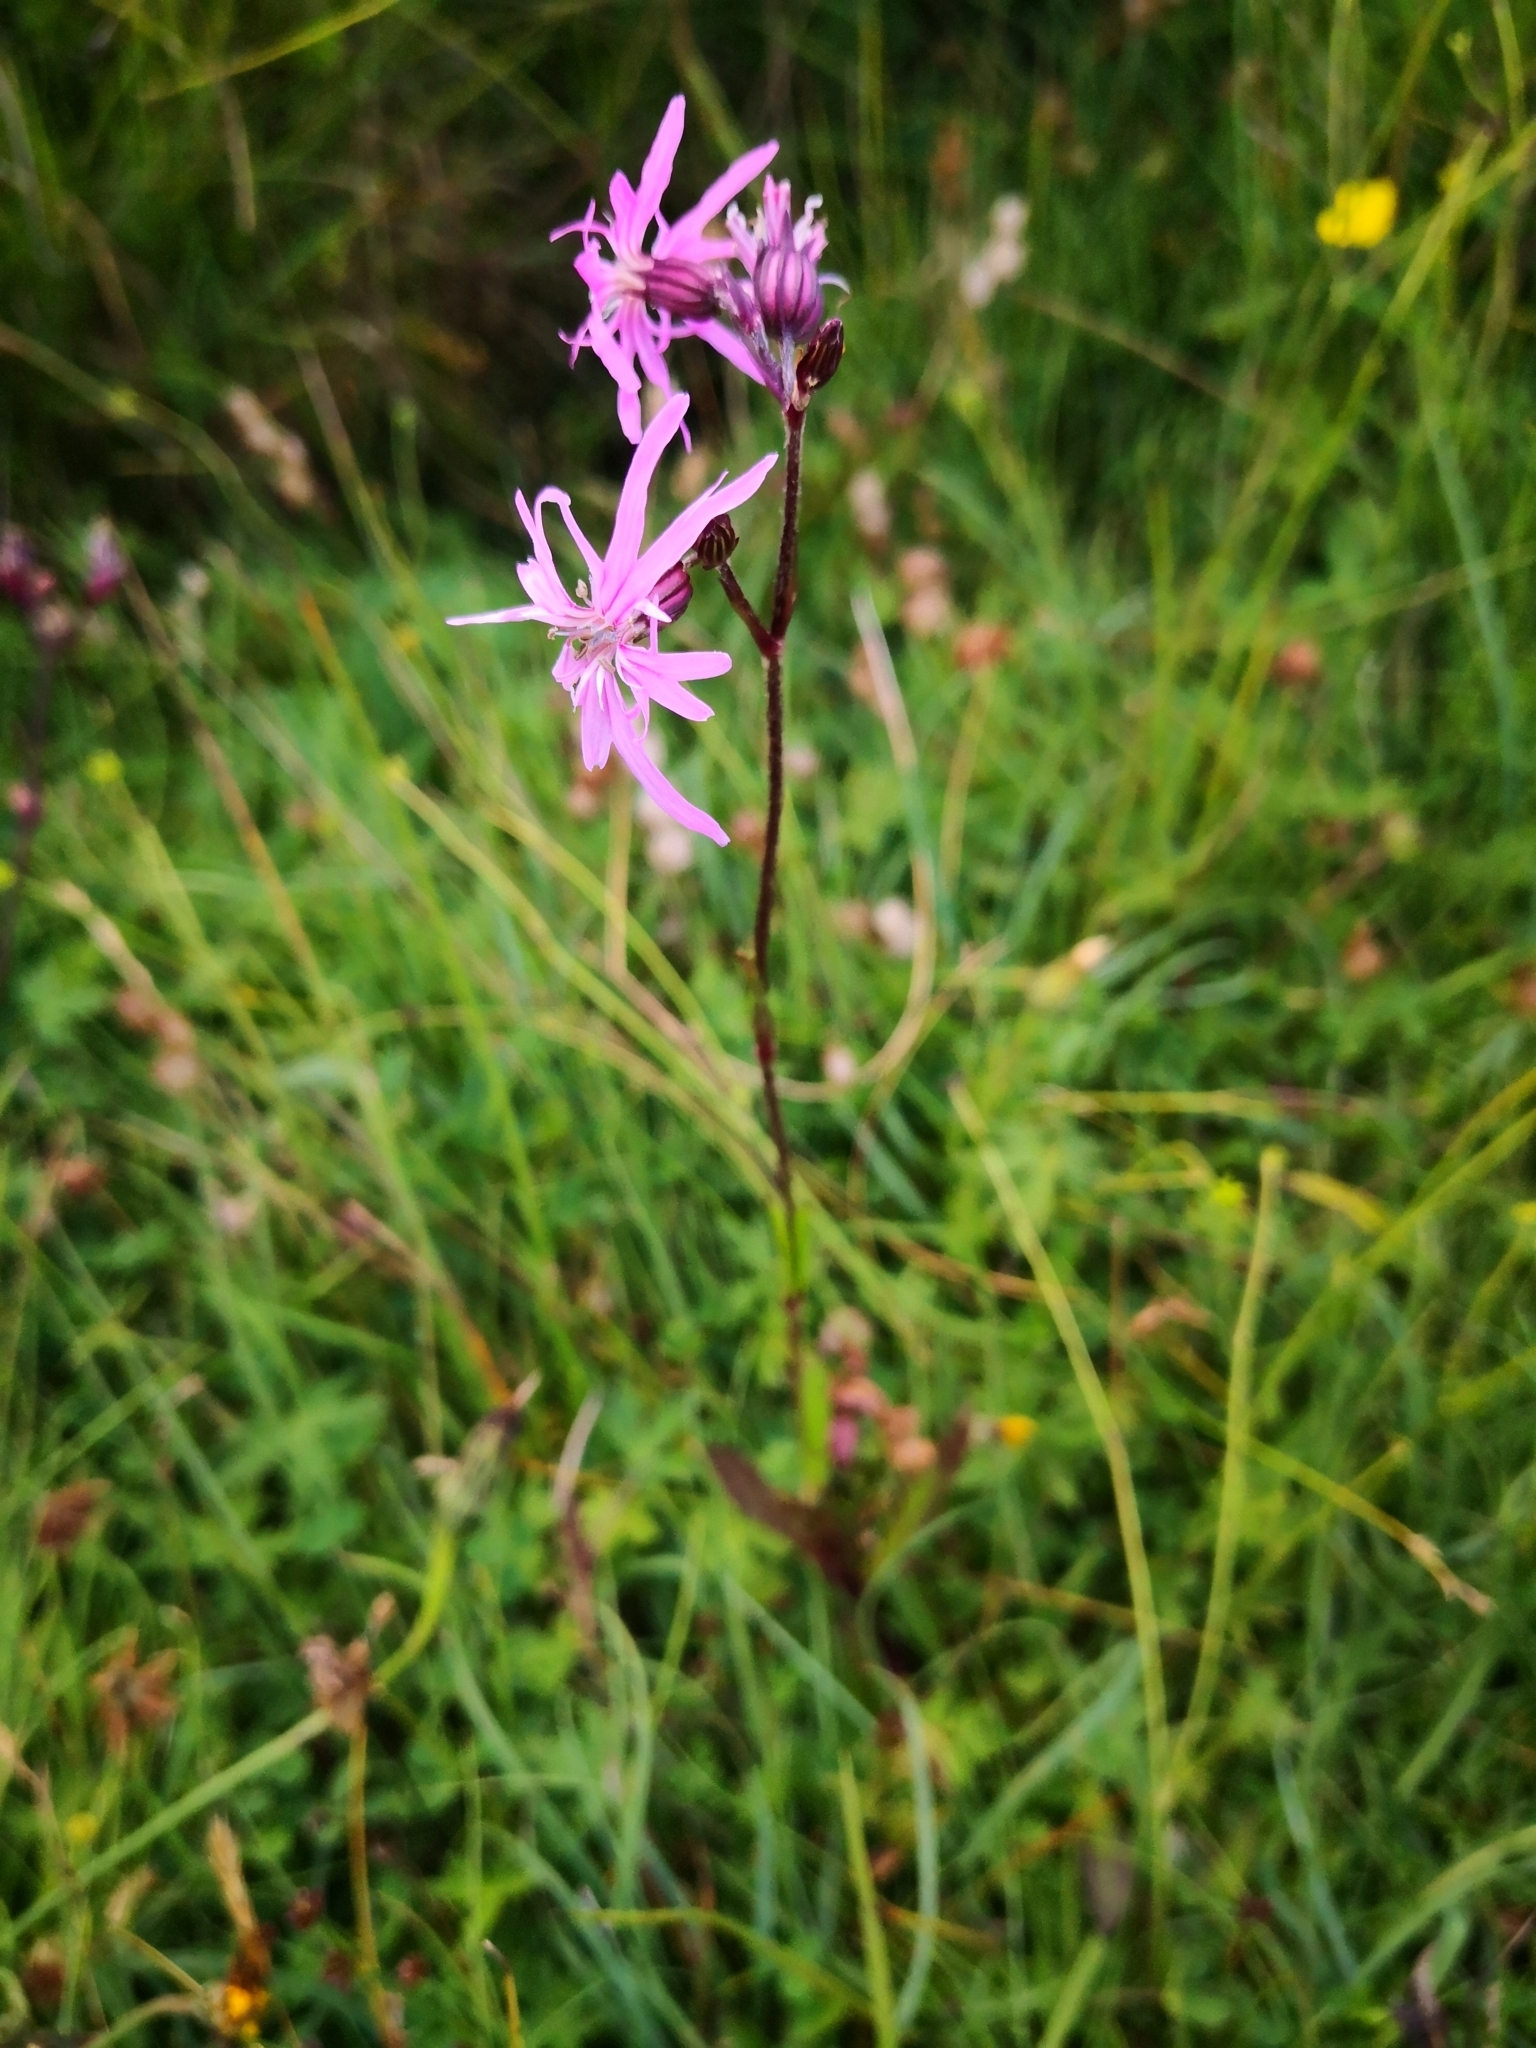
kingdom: Plantae
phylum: Tracheophyta
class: Magnoliopsida
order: Caryophyllales
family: Caryophyllaceae
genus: Silene
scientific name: Silene flos-cuculi
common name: Ragged-robin
